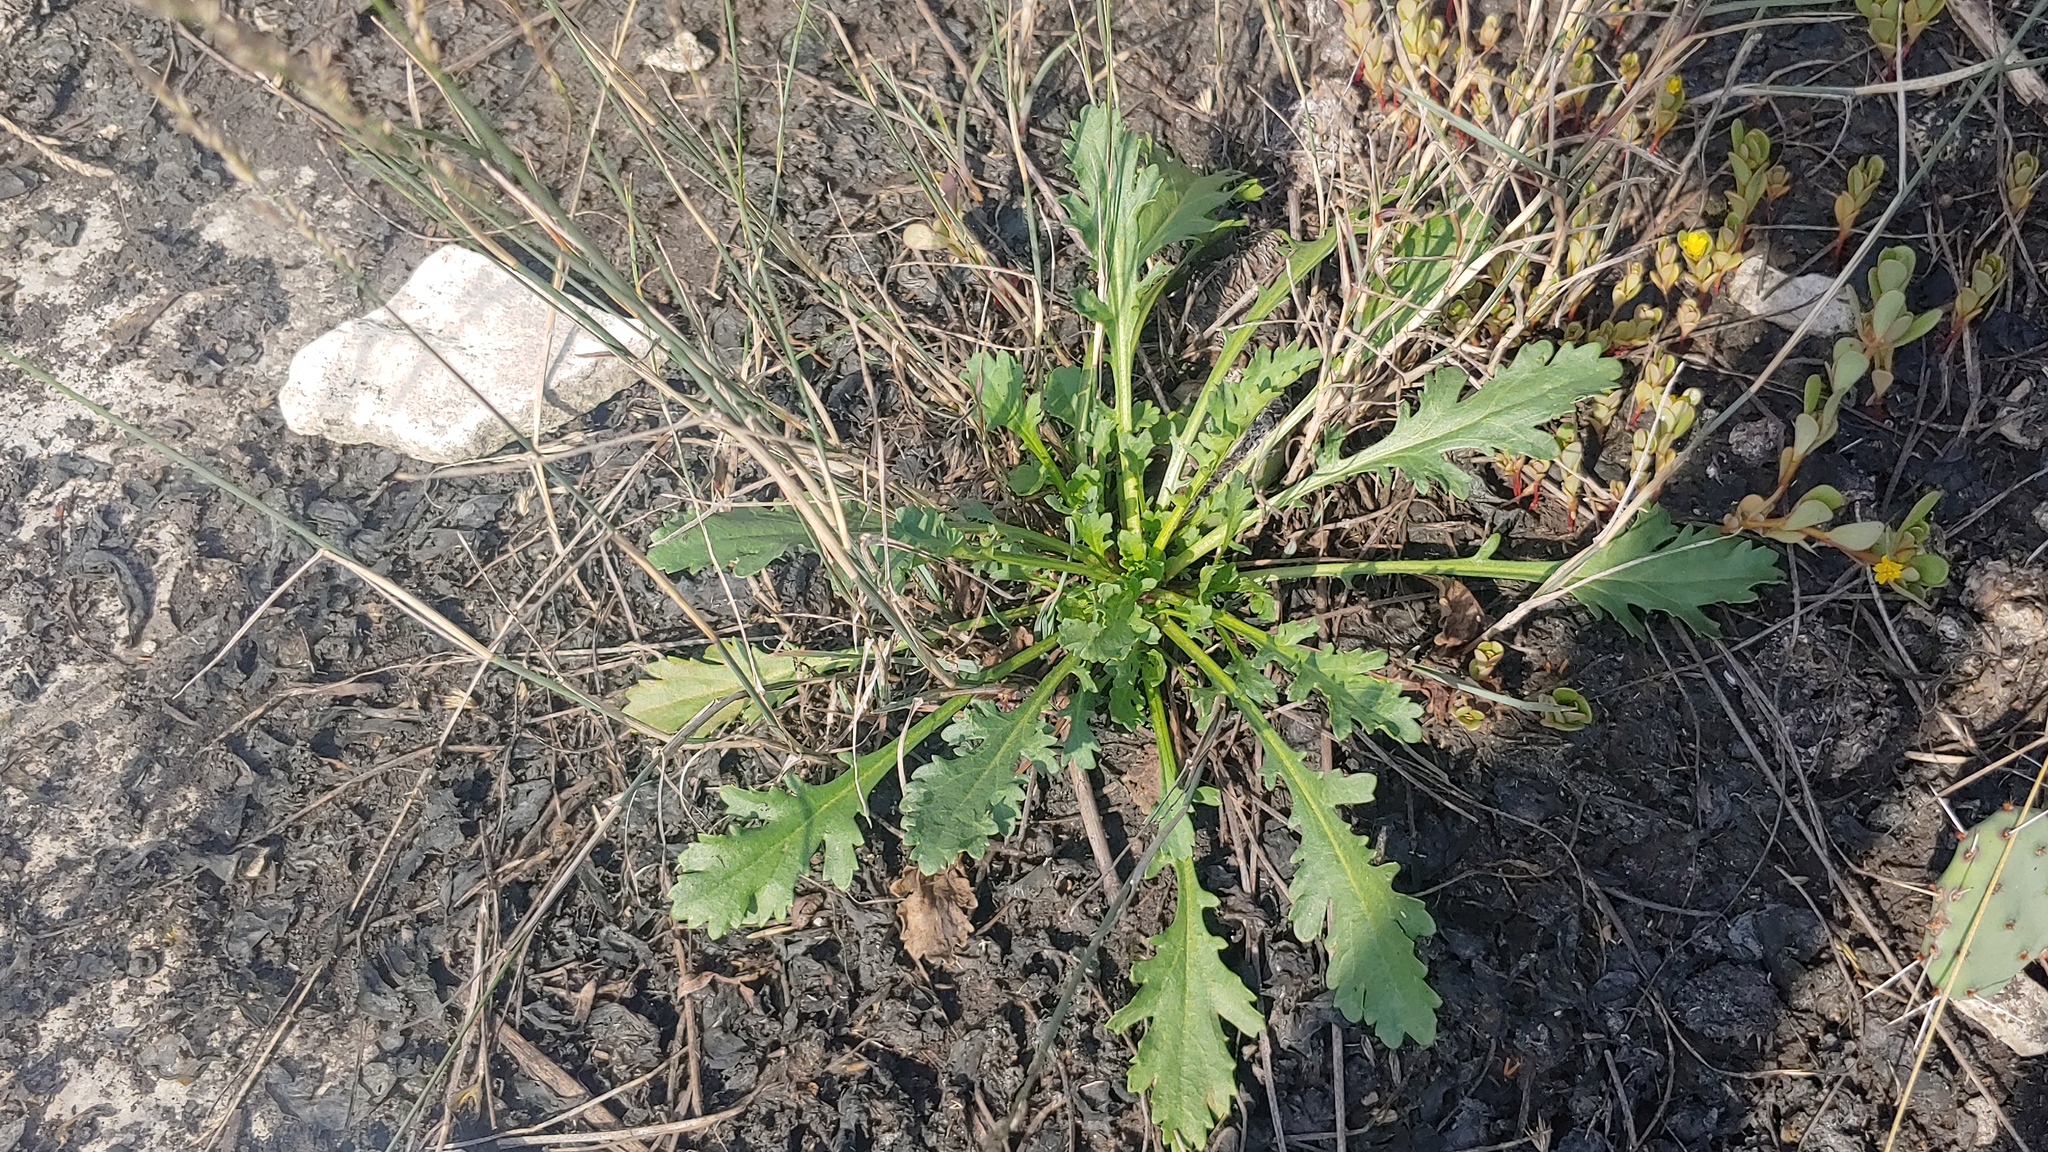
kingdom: Plantae
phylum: Tracheophyta
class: Magnoliopsida
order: Asterales
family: Asteraceae
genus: Leucanthemum
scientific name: Leucanthemum vulgare
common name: Oxeye daisy
